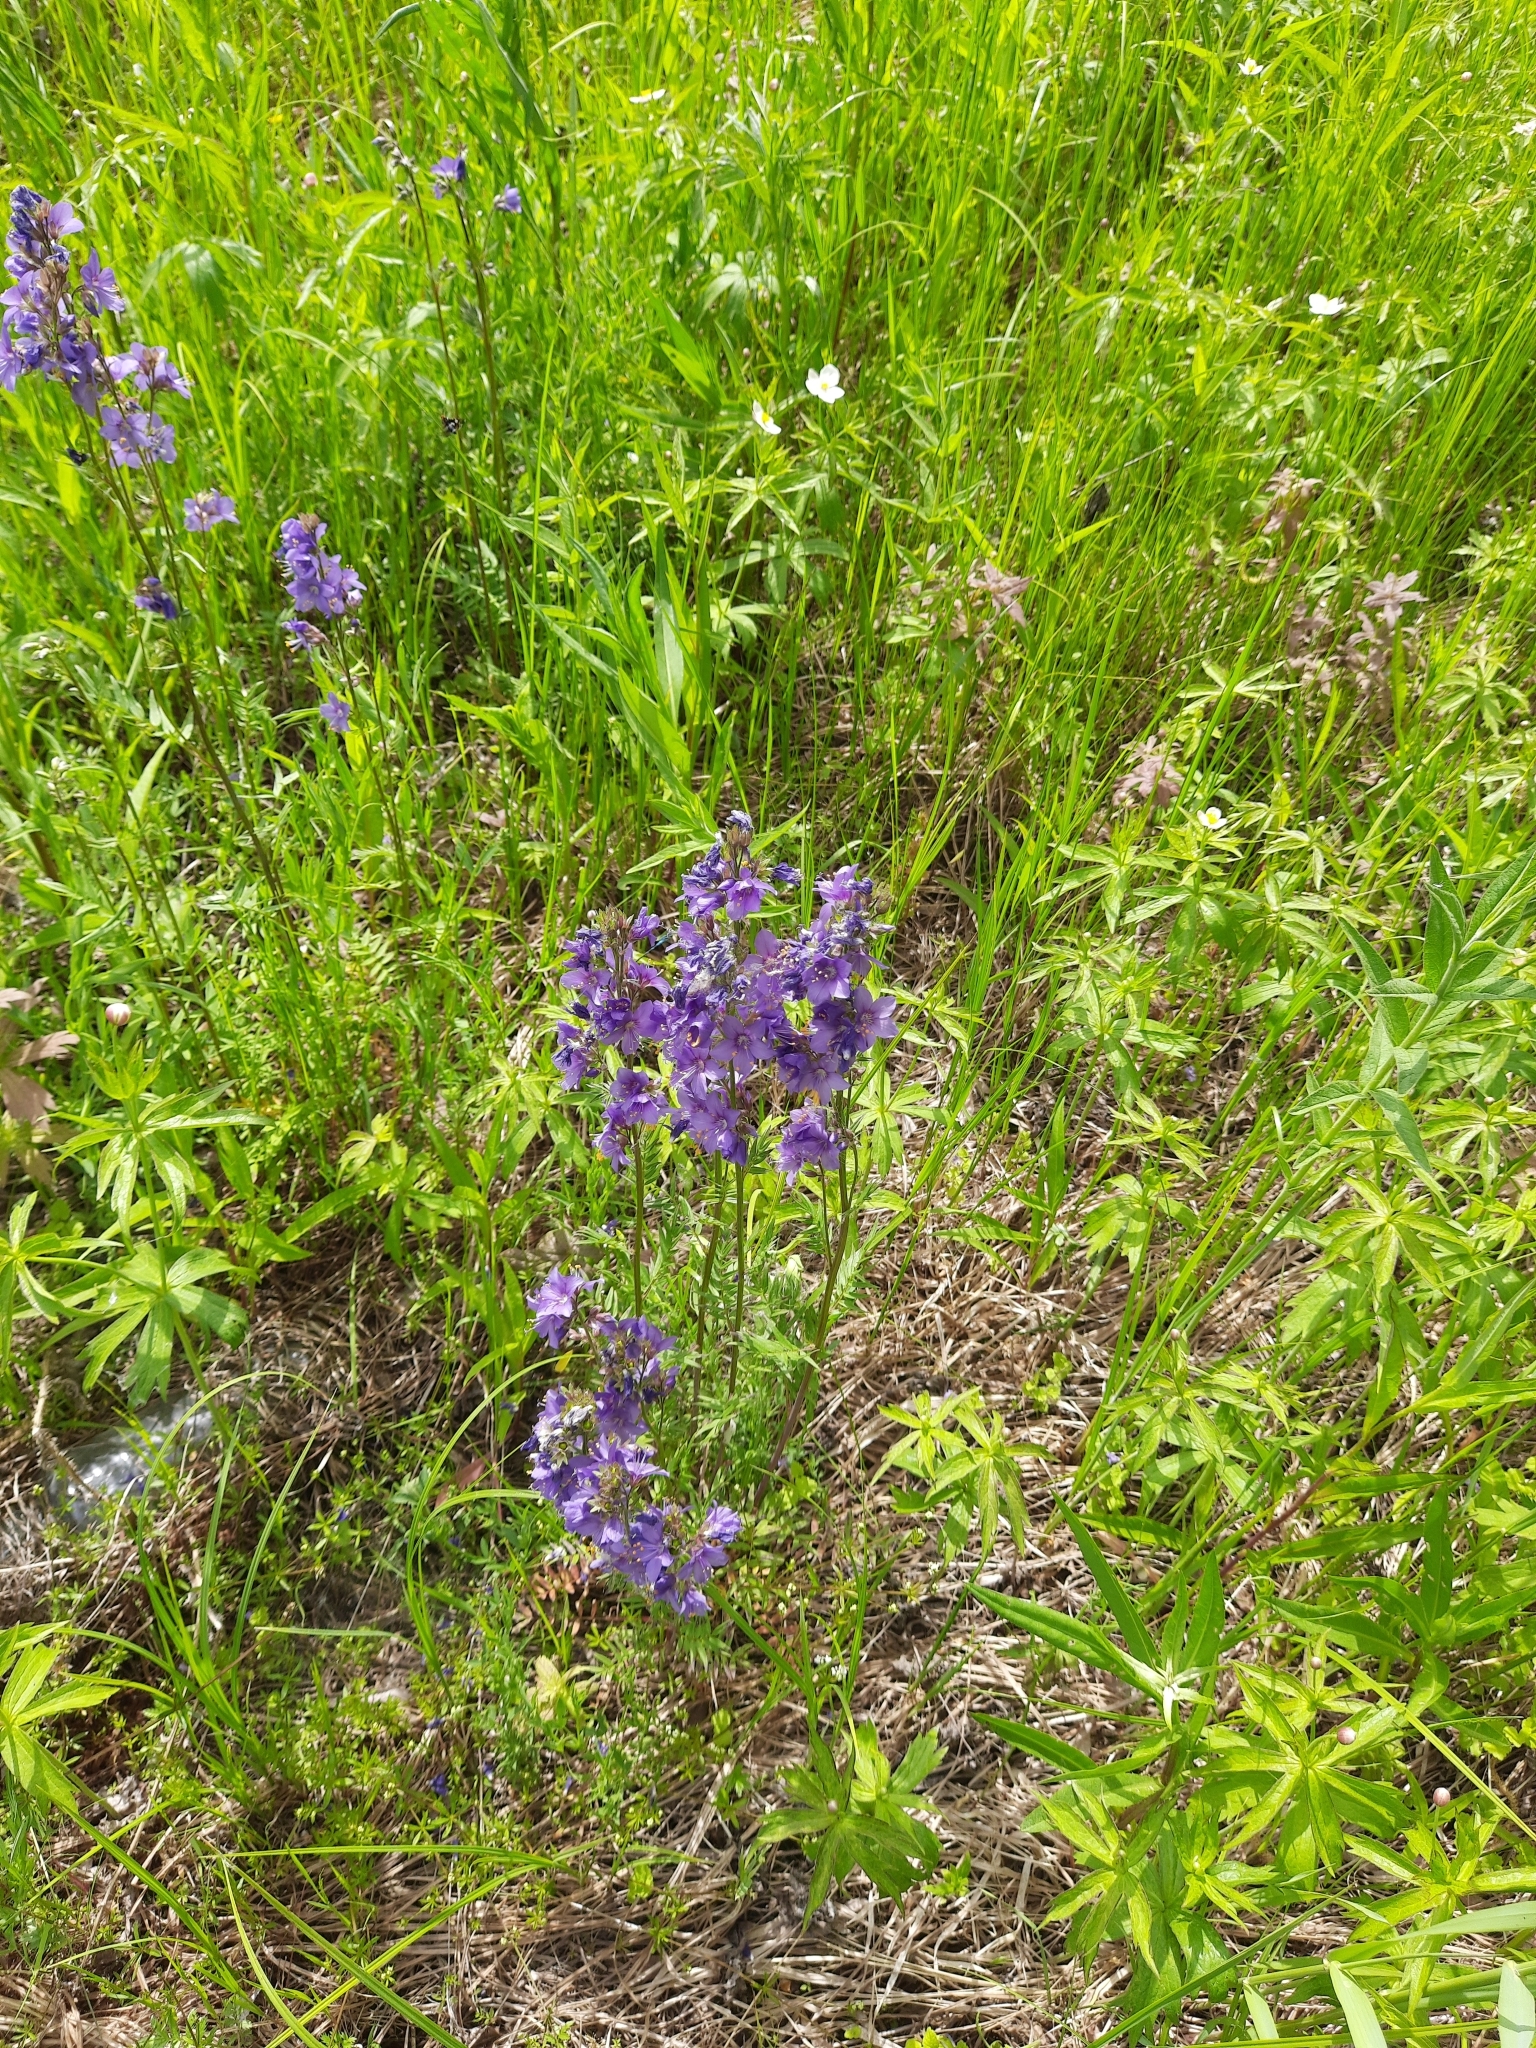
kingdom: Plantae
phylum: Tracheophyta
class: Magnoliopsida
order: Ericales
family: Polemoniaceae
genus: Polemonium
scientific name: Polemonium caeruleum
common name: Jacob's-ladder
